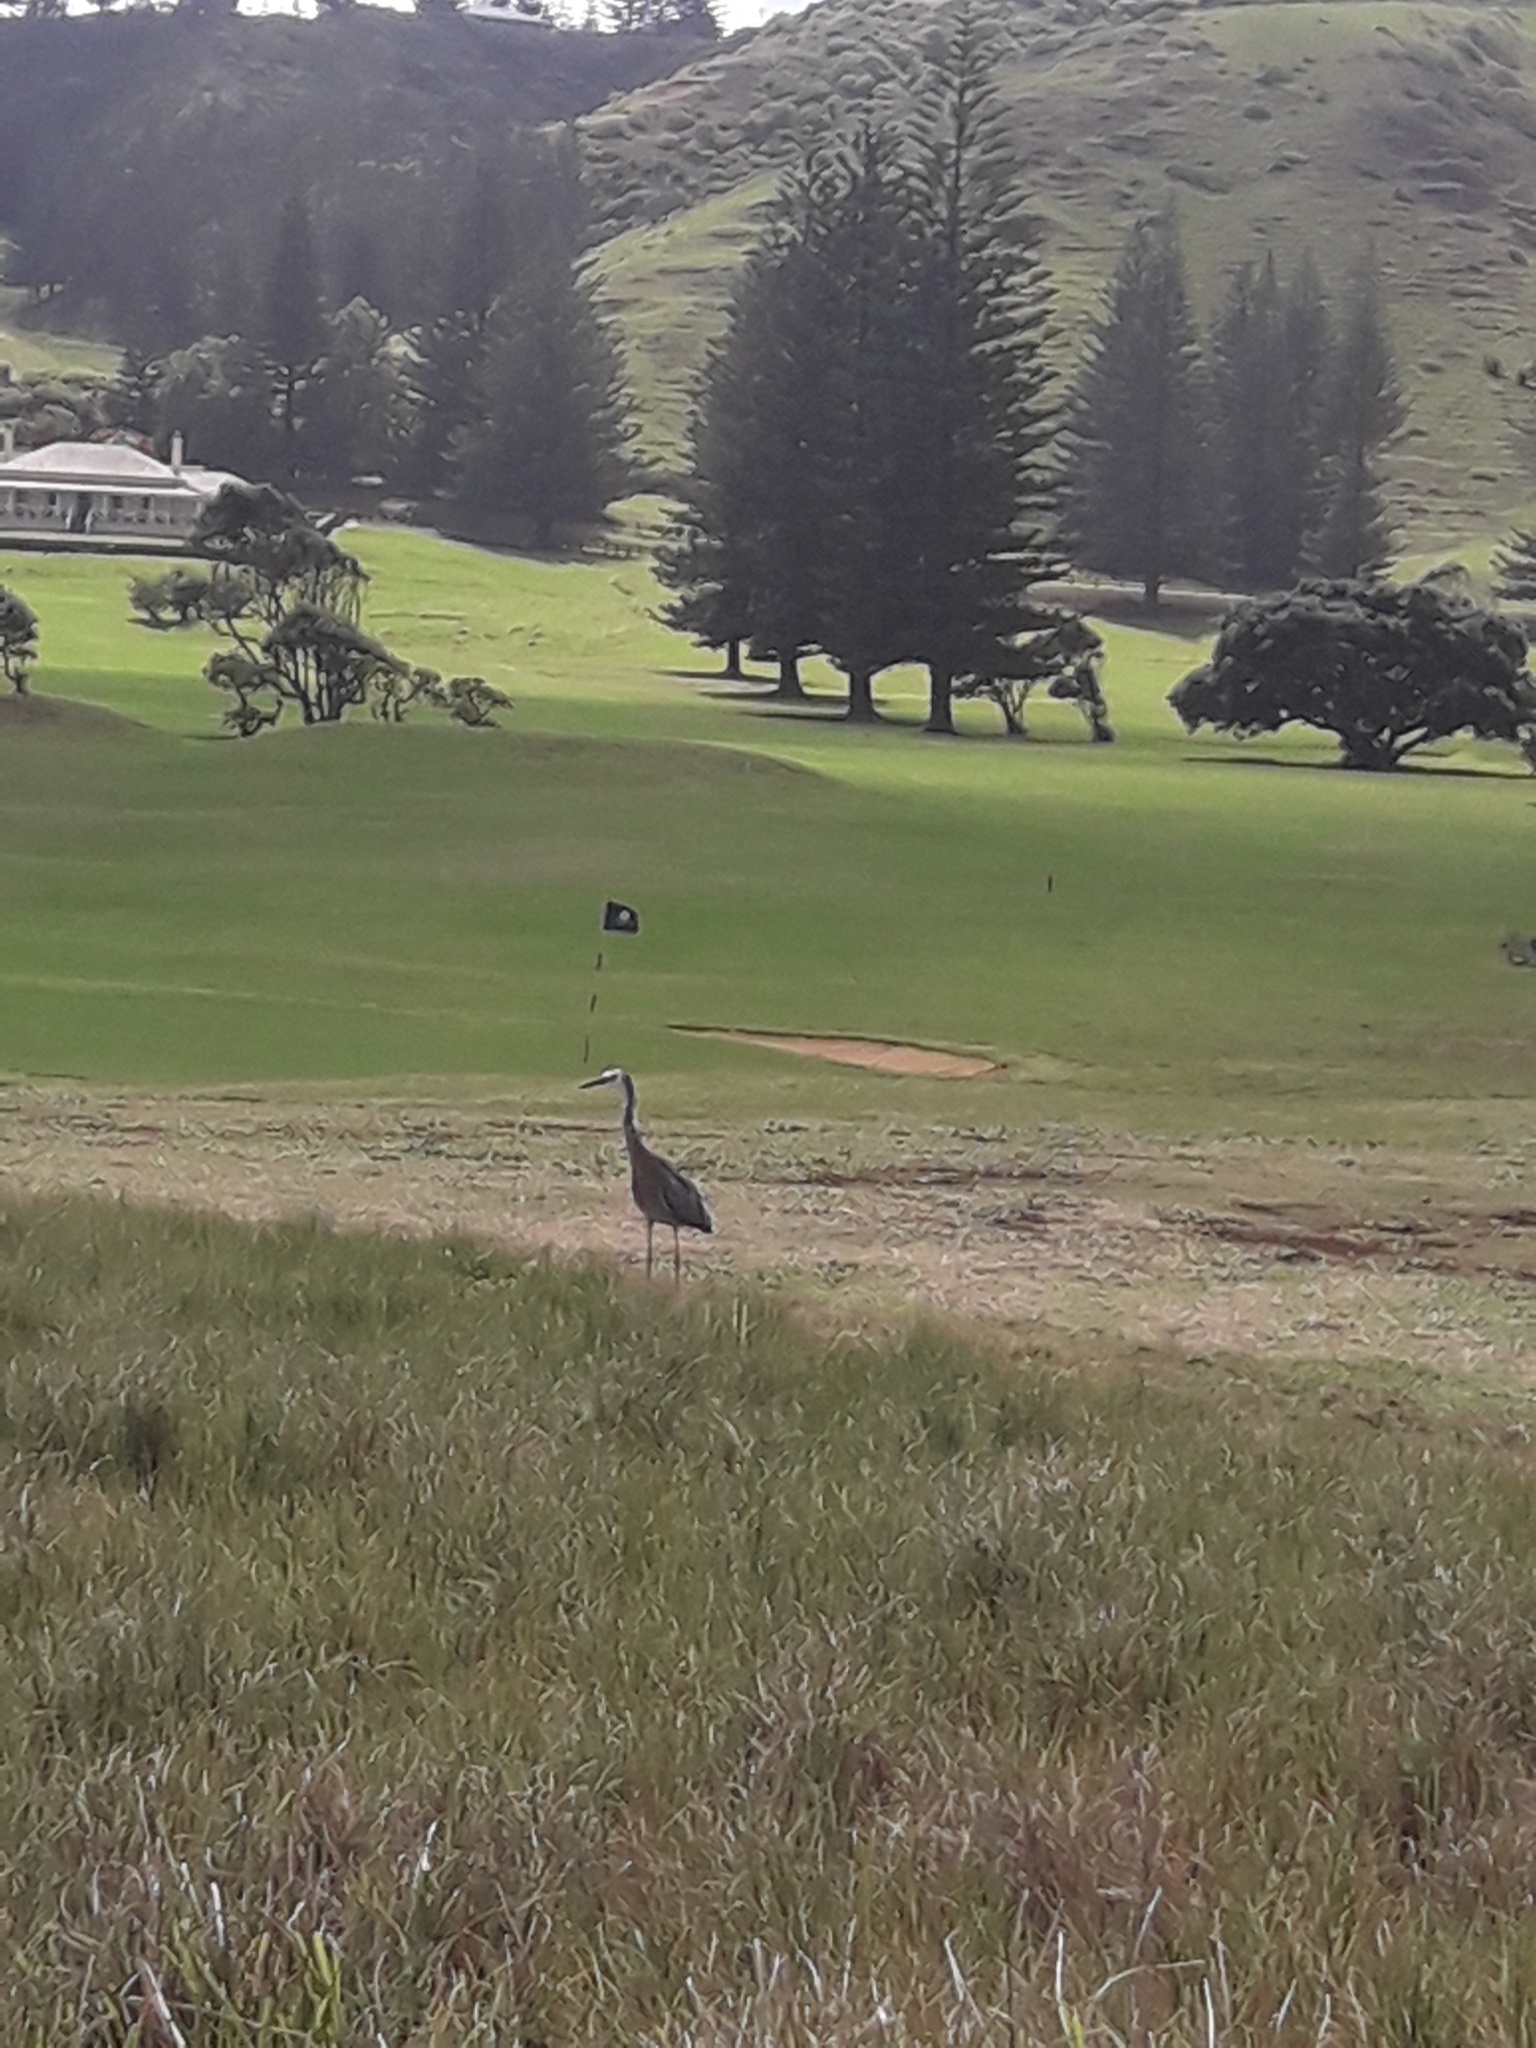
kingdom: Animalia
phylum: Chordata
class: Aves
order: Pelecaniformes
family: Ardeidae
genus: Egretta
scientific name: Egretta novaehollandiae
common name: White-faced heron
